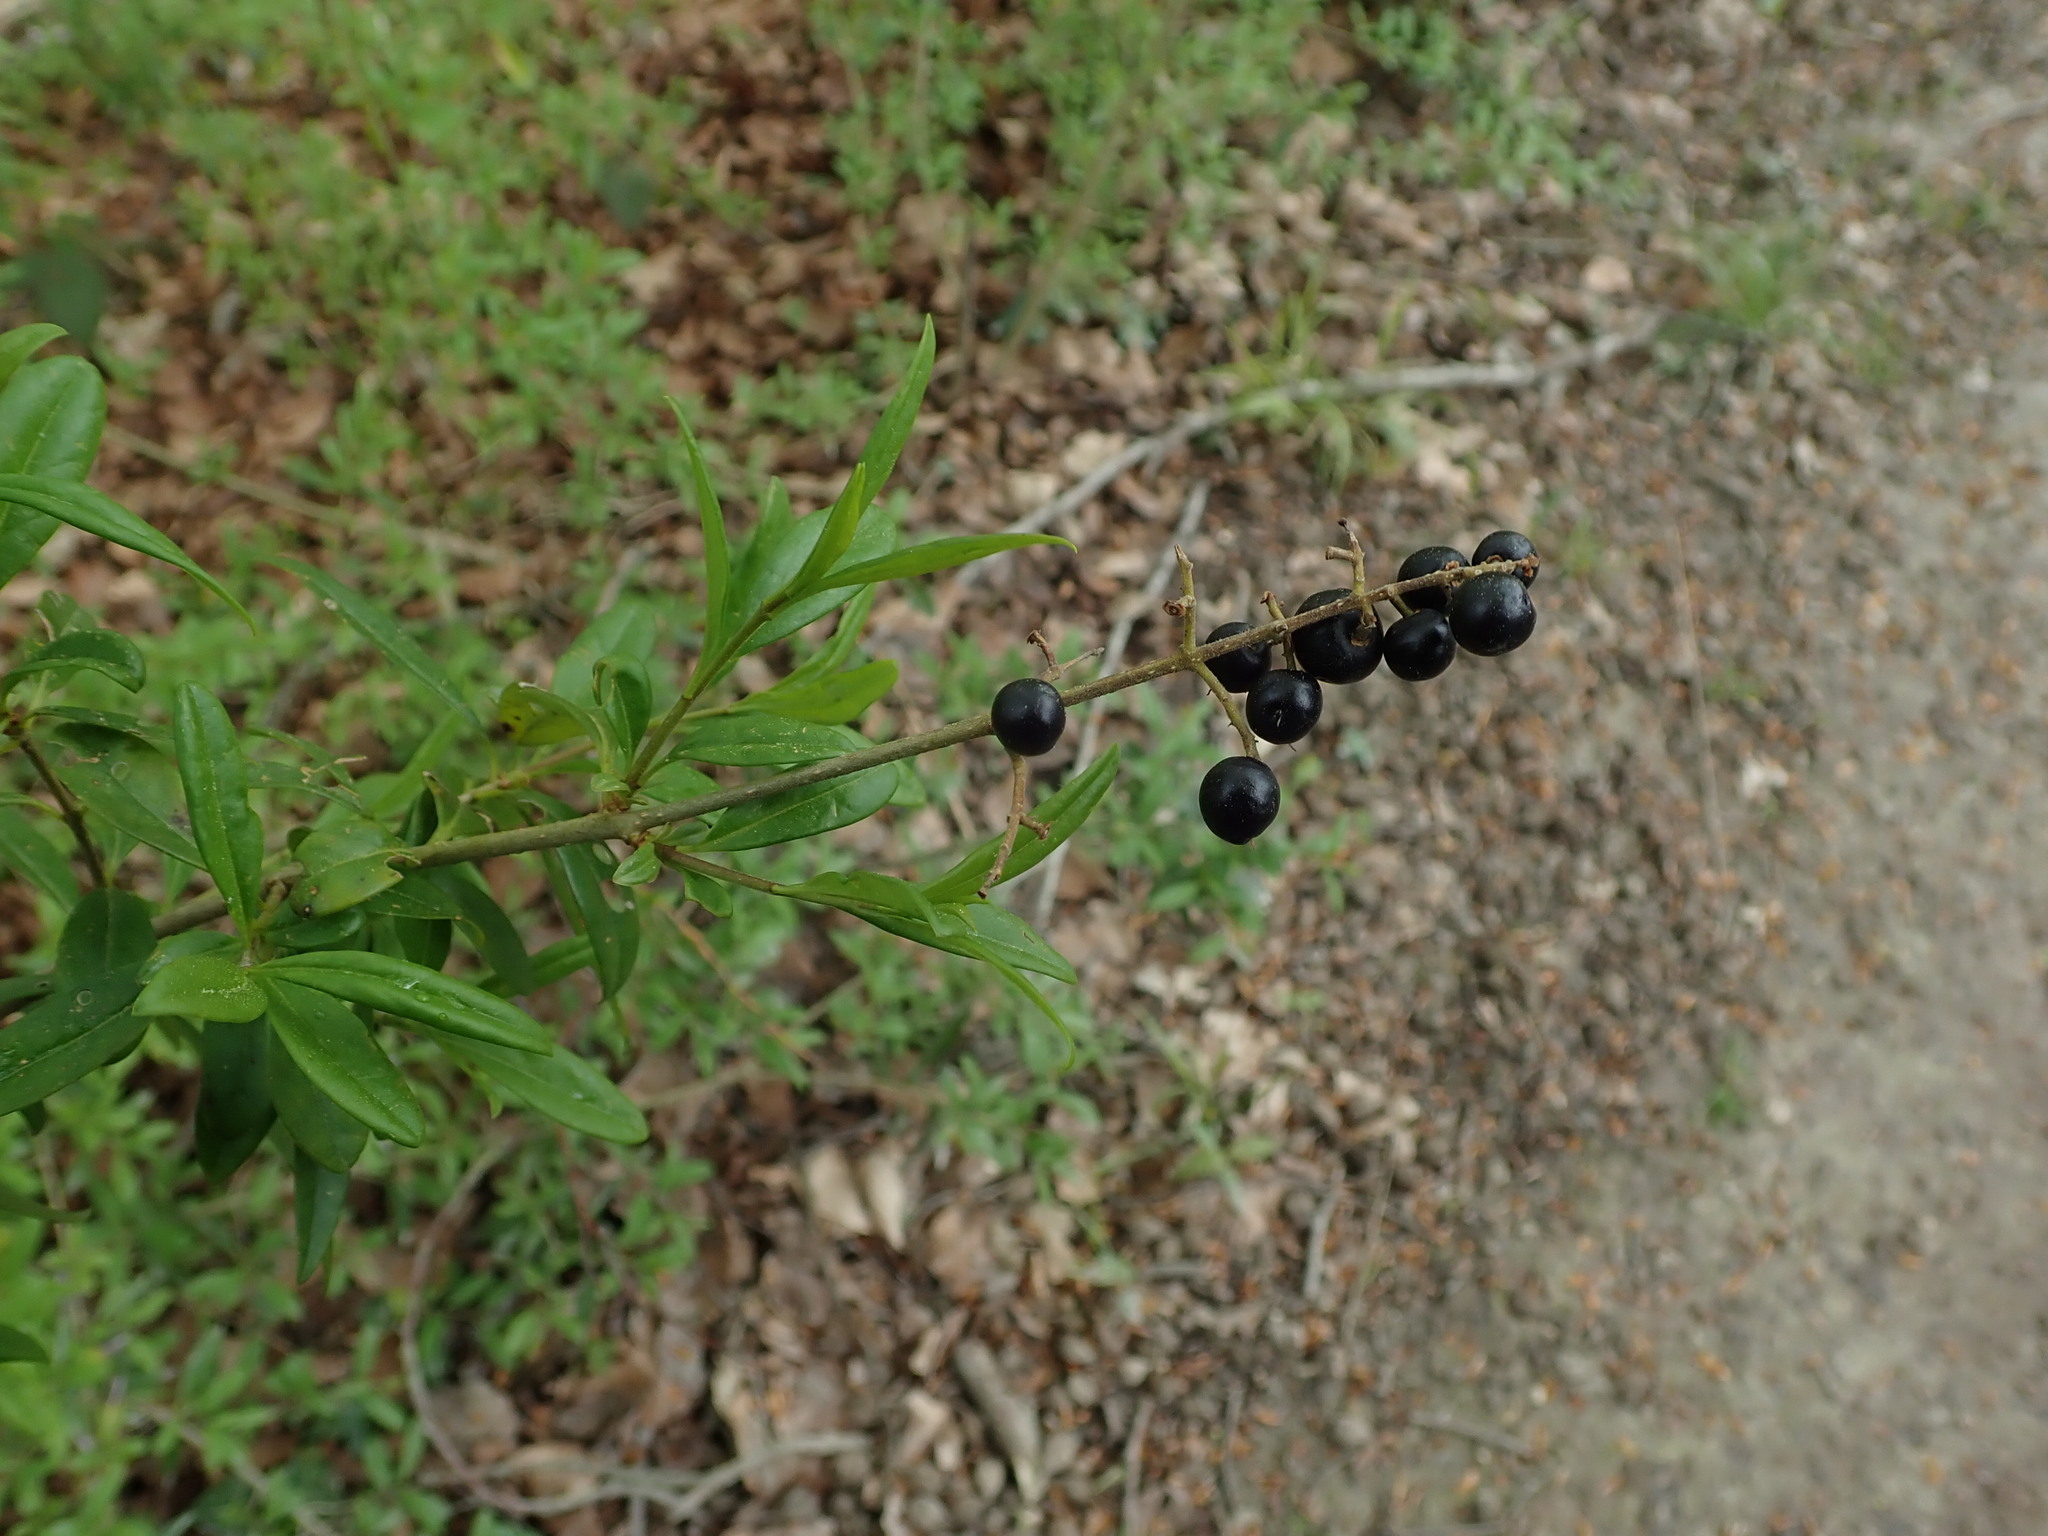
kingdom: Plantae
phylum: Tracheophyta
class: Magnoliopsida
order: Lamiales
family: Oleaceae
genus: Ligustrum
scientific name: Ligustrum vulgare
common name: Wild privet
